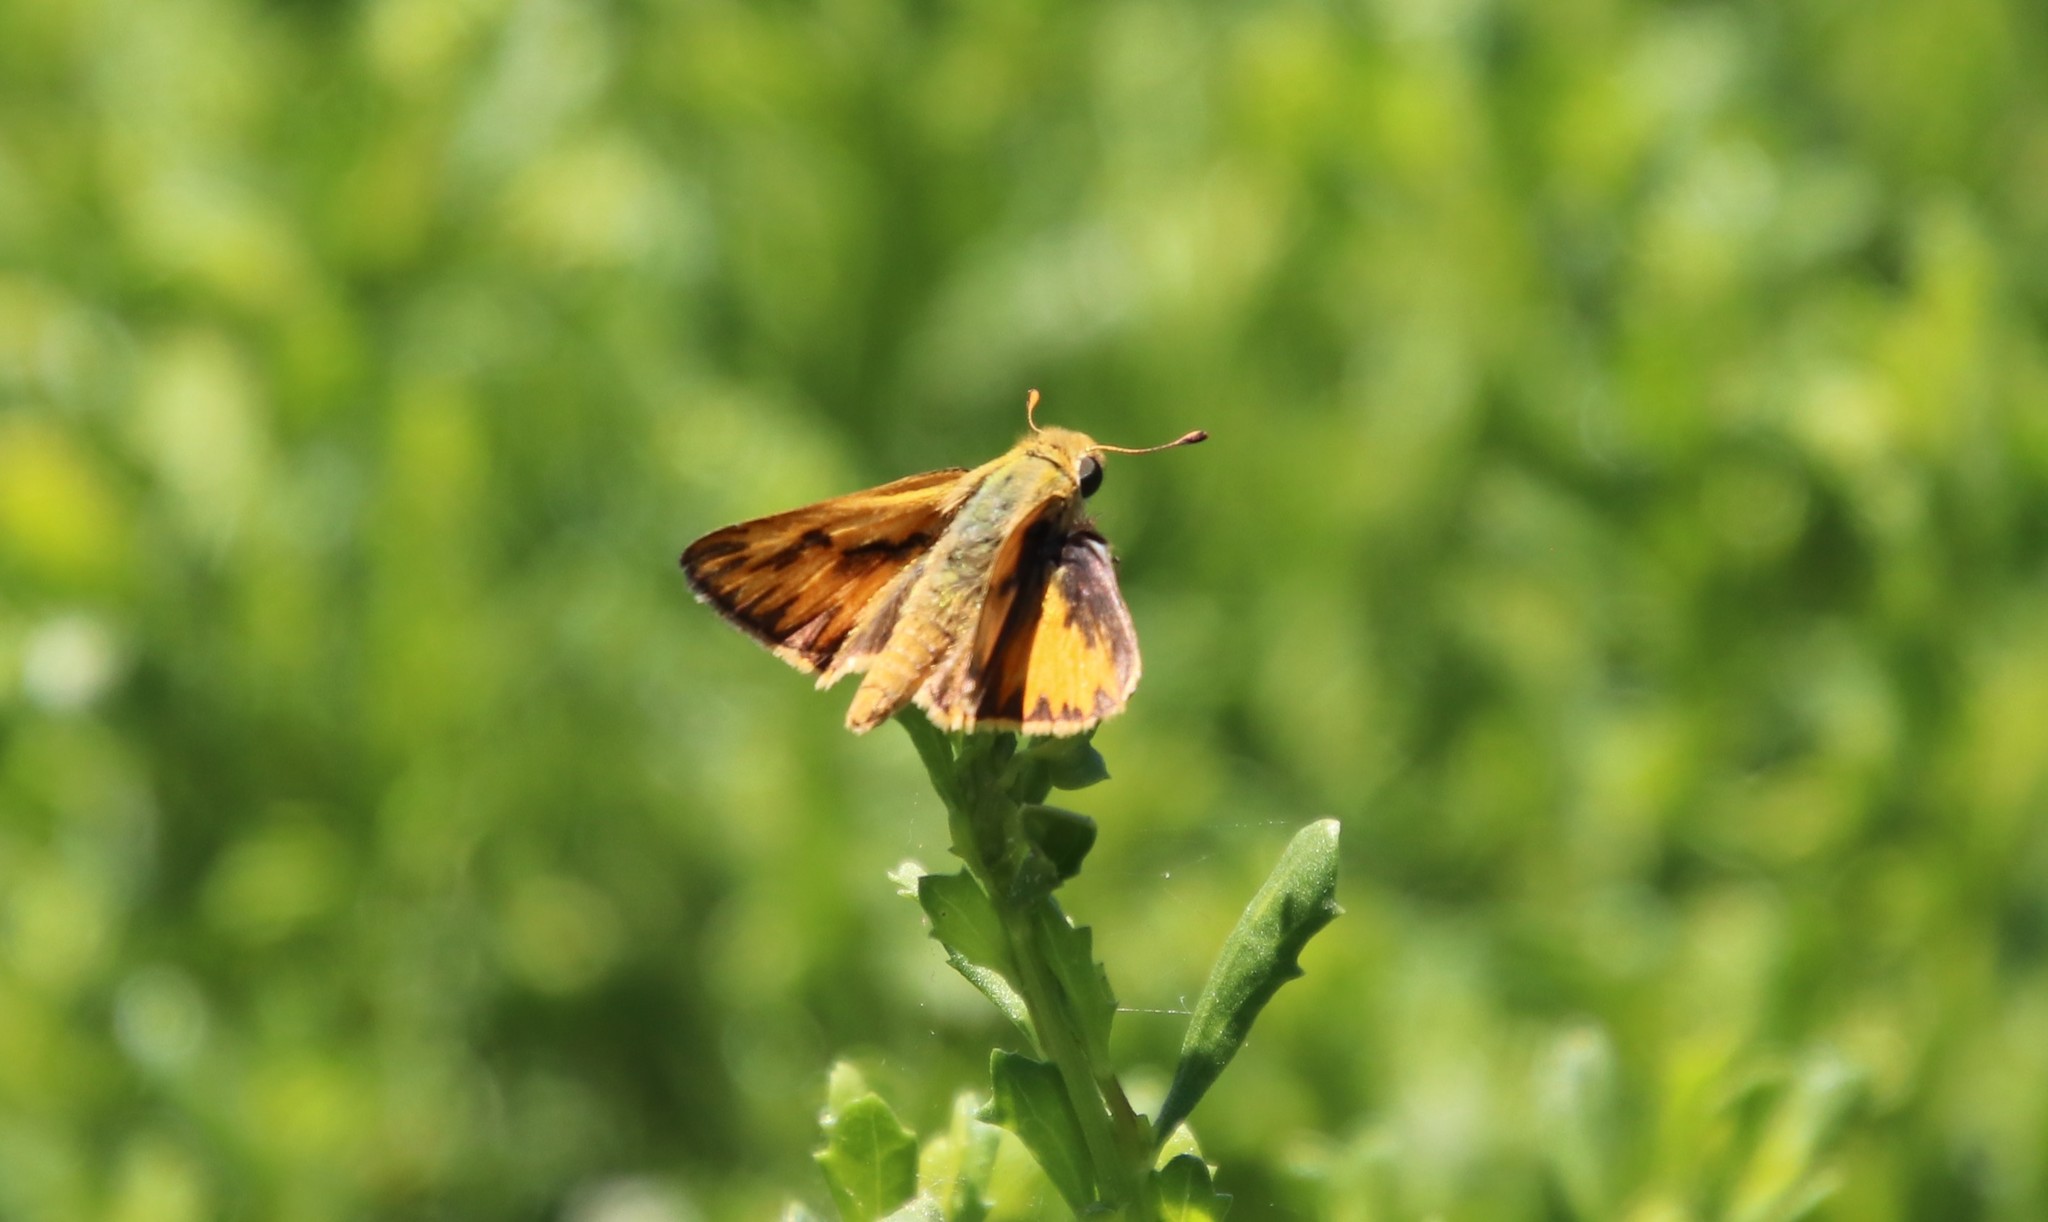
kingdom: Animalia
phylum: Arthropoda
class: Insecta
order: Lepidoptera
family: Hesperiidae
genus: Hylephila
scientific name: Hylephila phyleus
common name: Fiery skipper
